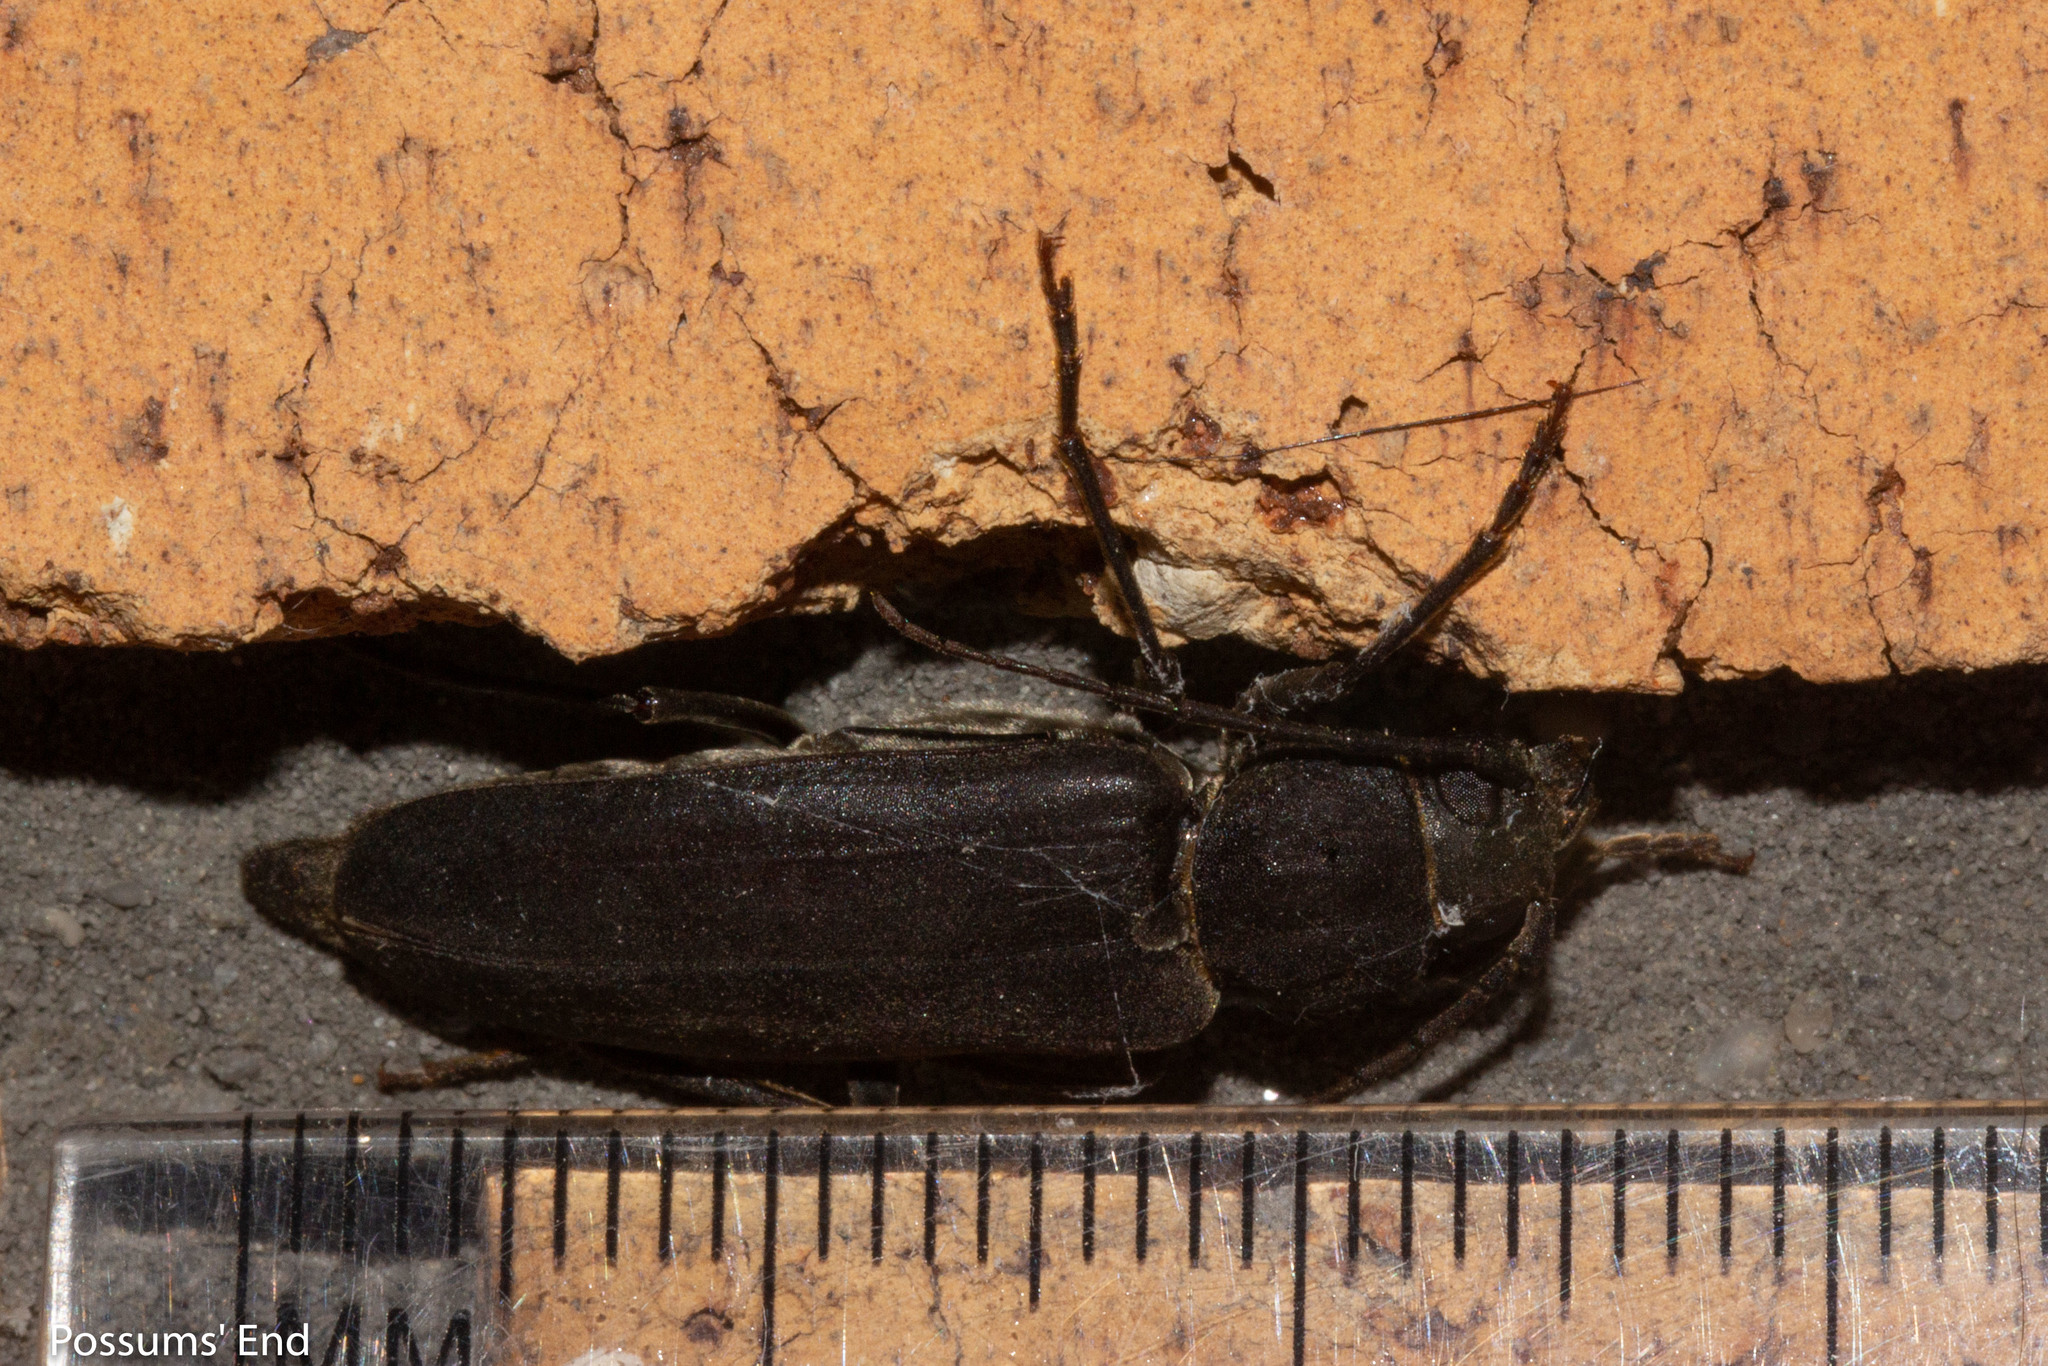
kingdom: Animalia
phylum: Arthropoda
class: Insecta
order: Coleoptera
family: Cerambycidae
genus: Arhopalus
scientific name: Arhopalus ferus
